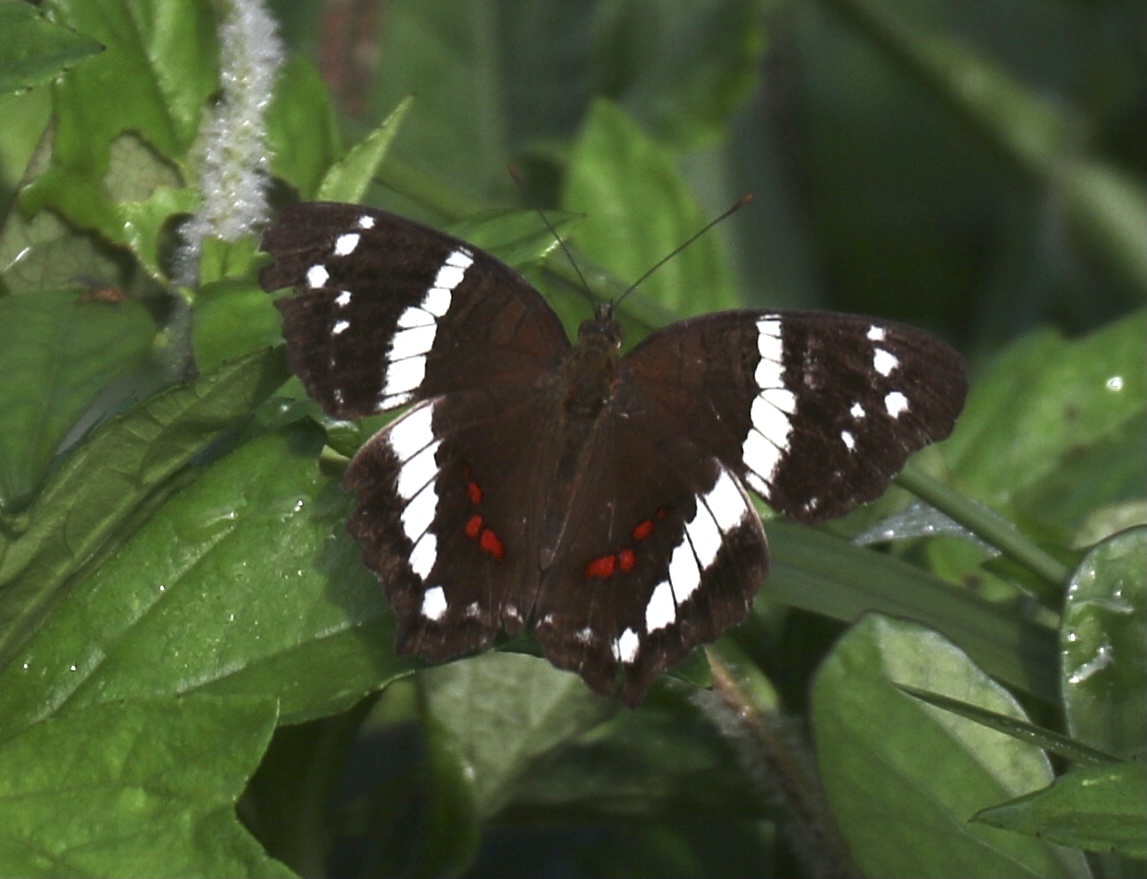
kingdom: Animalia
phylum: Arthropoda
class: Insecta
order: Lepidoptera
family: Nymphalidae
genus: Anartia
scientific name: Anartia fatima
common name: Banded peacock
